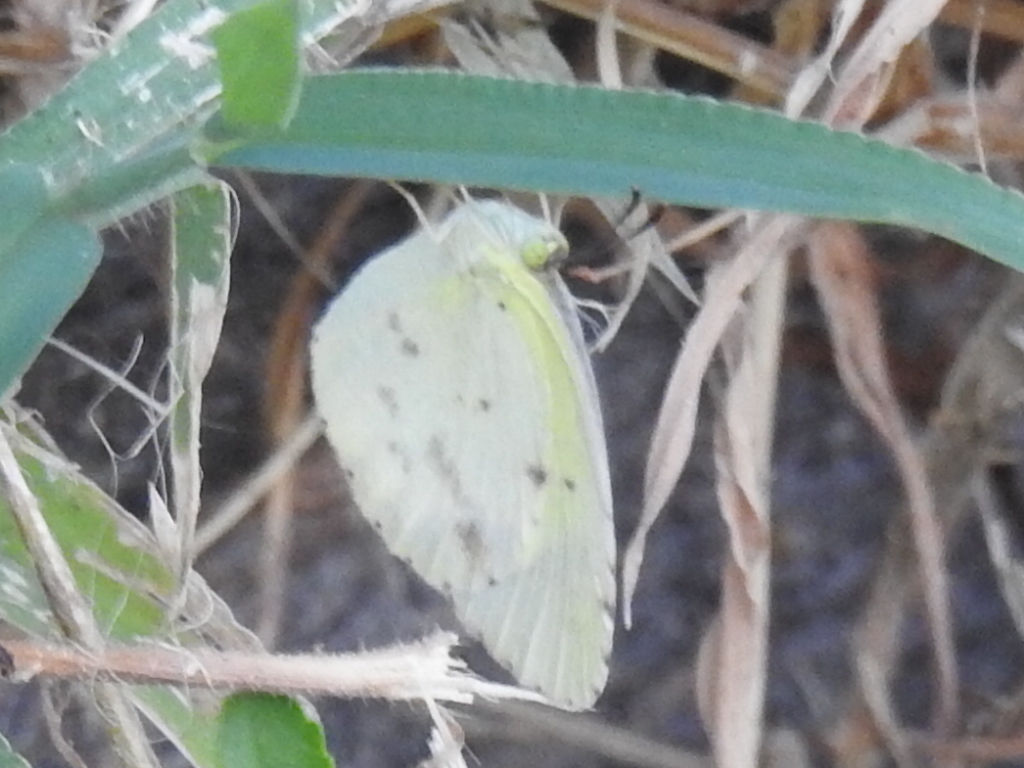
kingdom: Animalia
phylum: Arthropoda
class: Insecta
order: Lepidoptera
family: Pieridae
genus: Pyrisitia
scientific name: Pyrisitia lisa
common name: Little yellow
